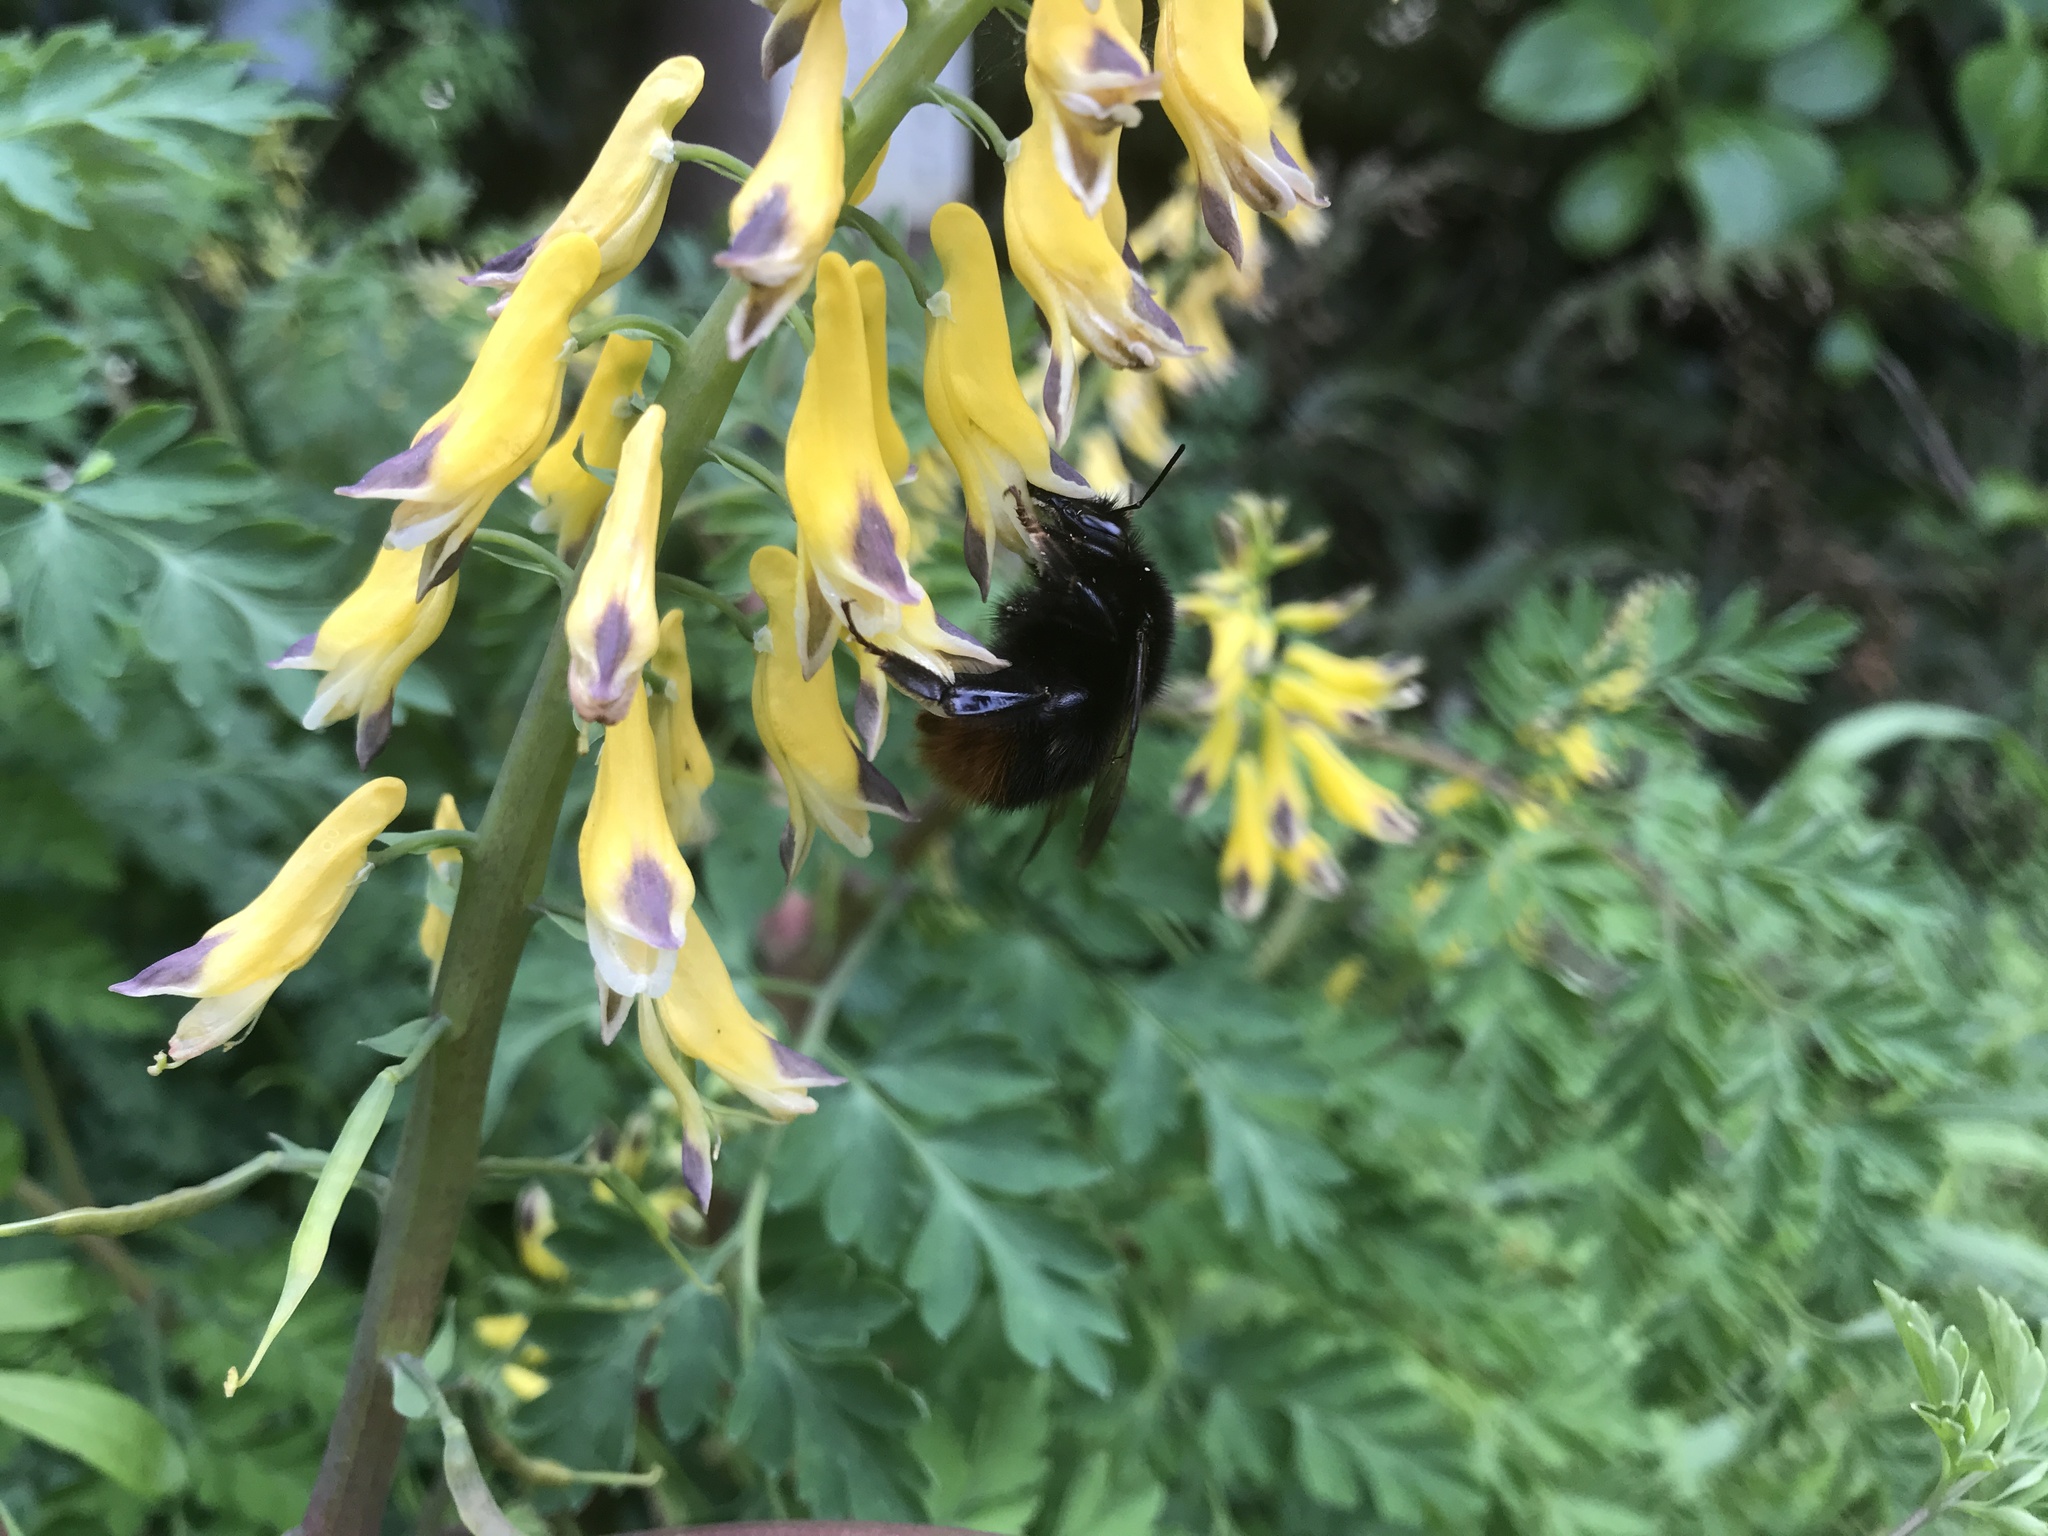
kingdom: Plantae
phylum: Tracheophyta
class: Magnoliopsida
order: Ranunculales
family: Papaveraceae
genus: Corydalis
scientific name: Corydalis platycarpa
